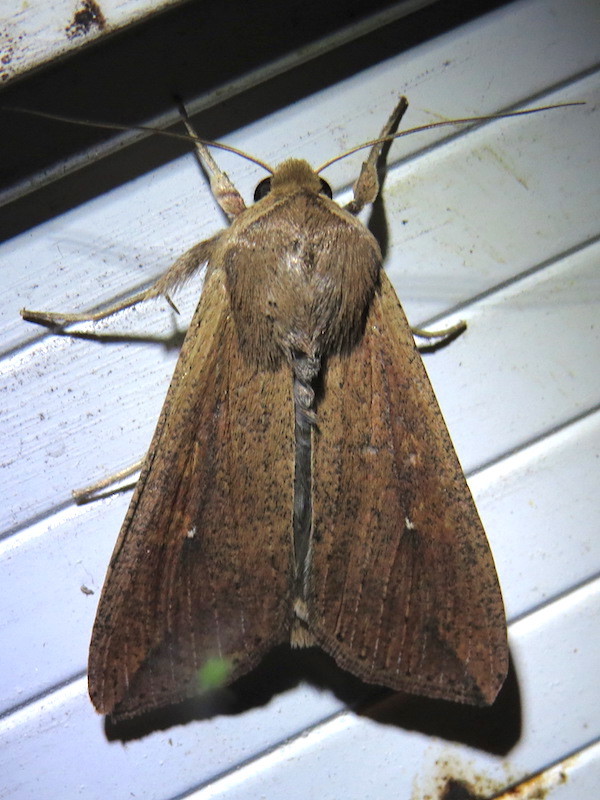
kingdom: Animalia
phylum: Arthropoda
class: Insecta
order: Lepidoptera
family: Noctuidae
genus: Mythimna
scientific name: Mythimna unipuncta
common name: White-speck
